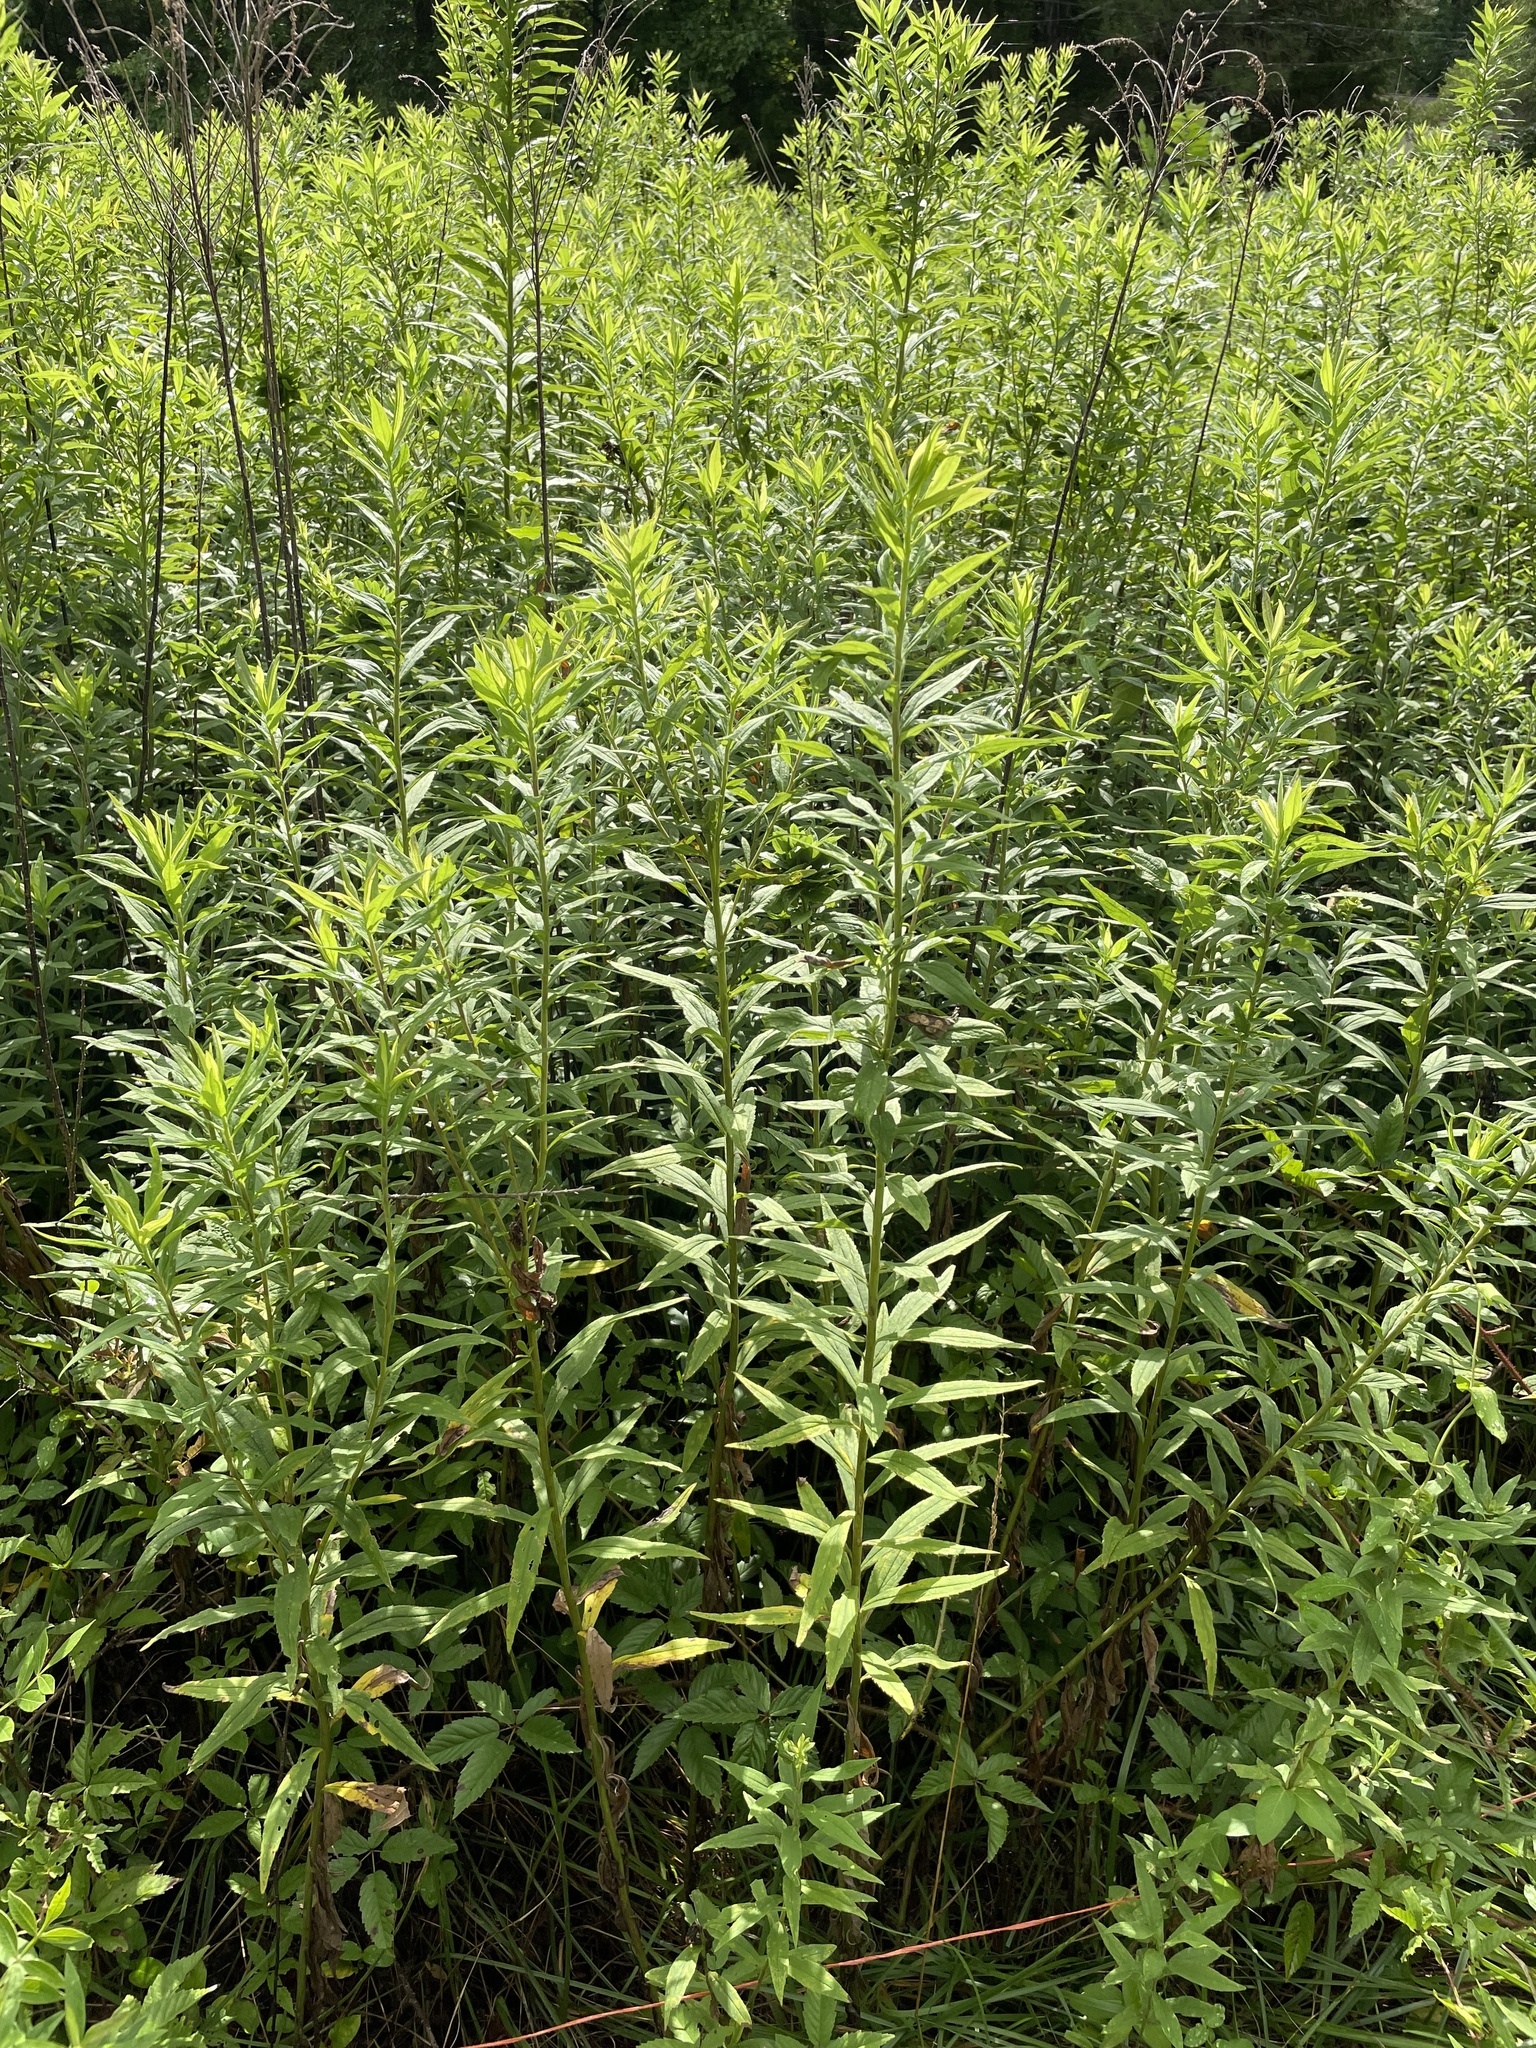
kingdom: Plantae
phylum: Tracheophyta
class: Magnoliopsida
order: Asterales
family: Asteraceae
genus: Solidago
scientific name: Solidago altissima
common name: Late goldenrod
